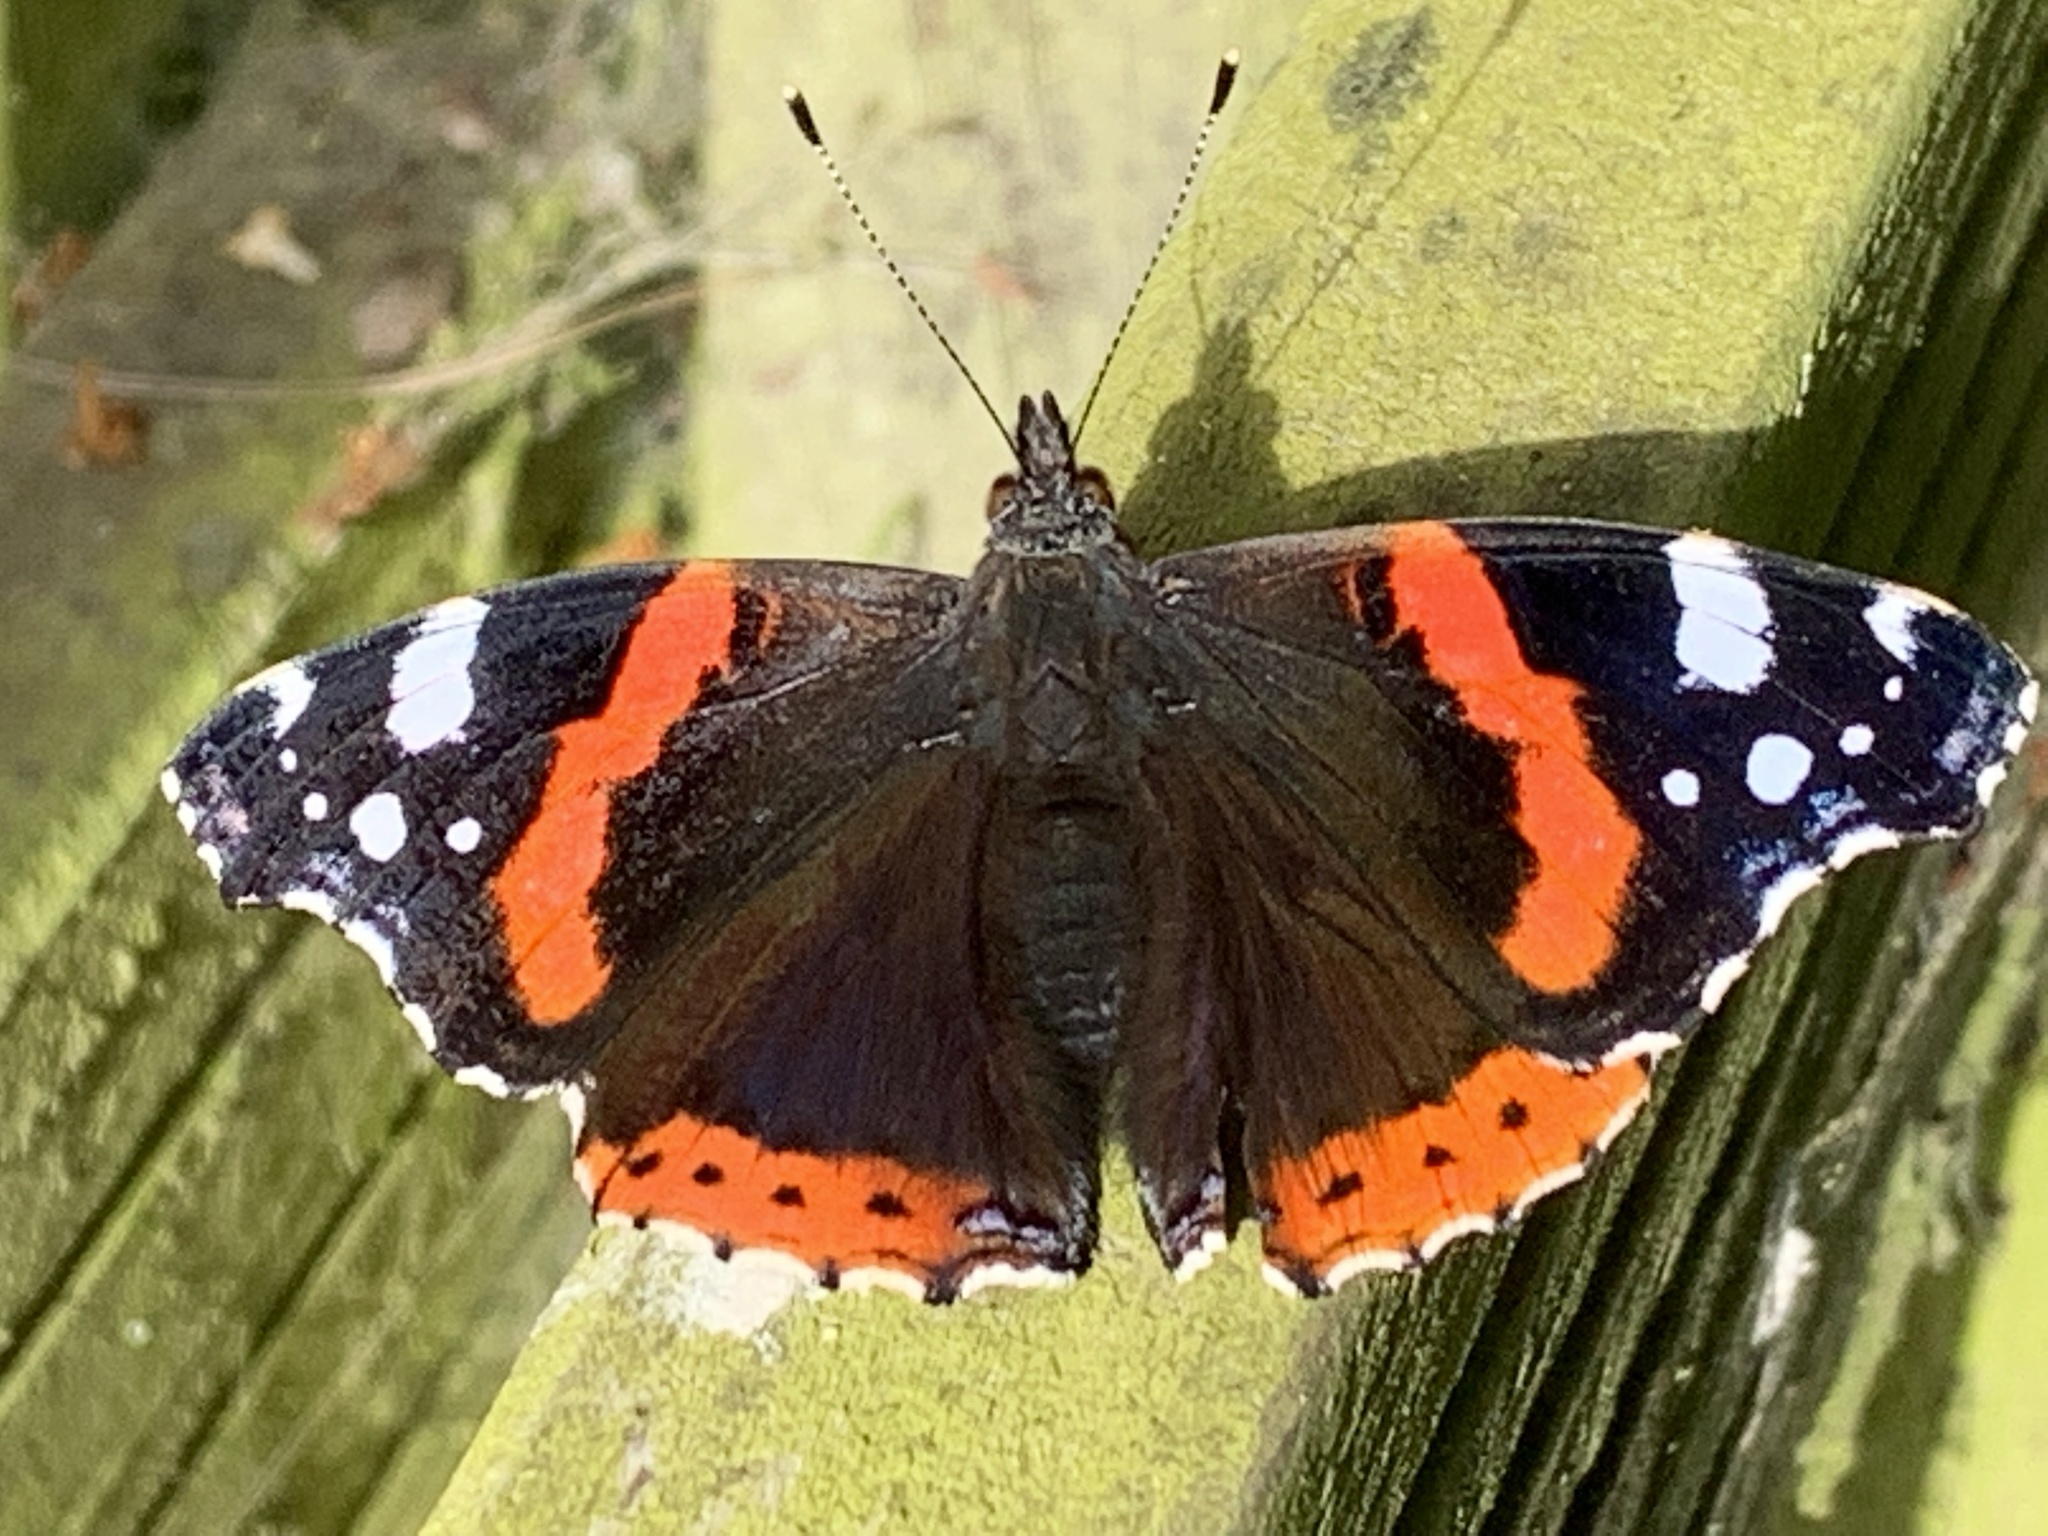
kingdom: Animalia
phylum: Arthropoda
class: Insecta
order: Lepidoptera
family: Nymphalidae
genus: Vanessa
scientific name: Vanessa atalanta
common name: Red admiral
